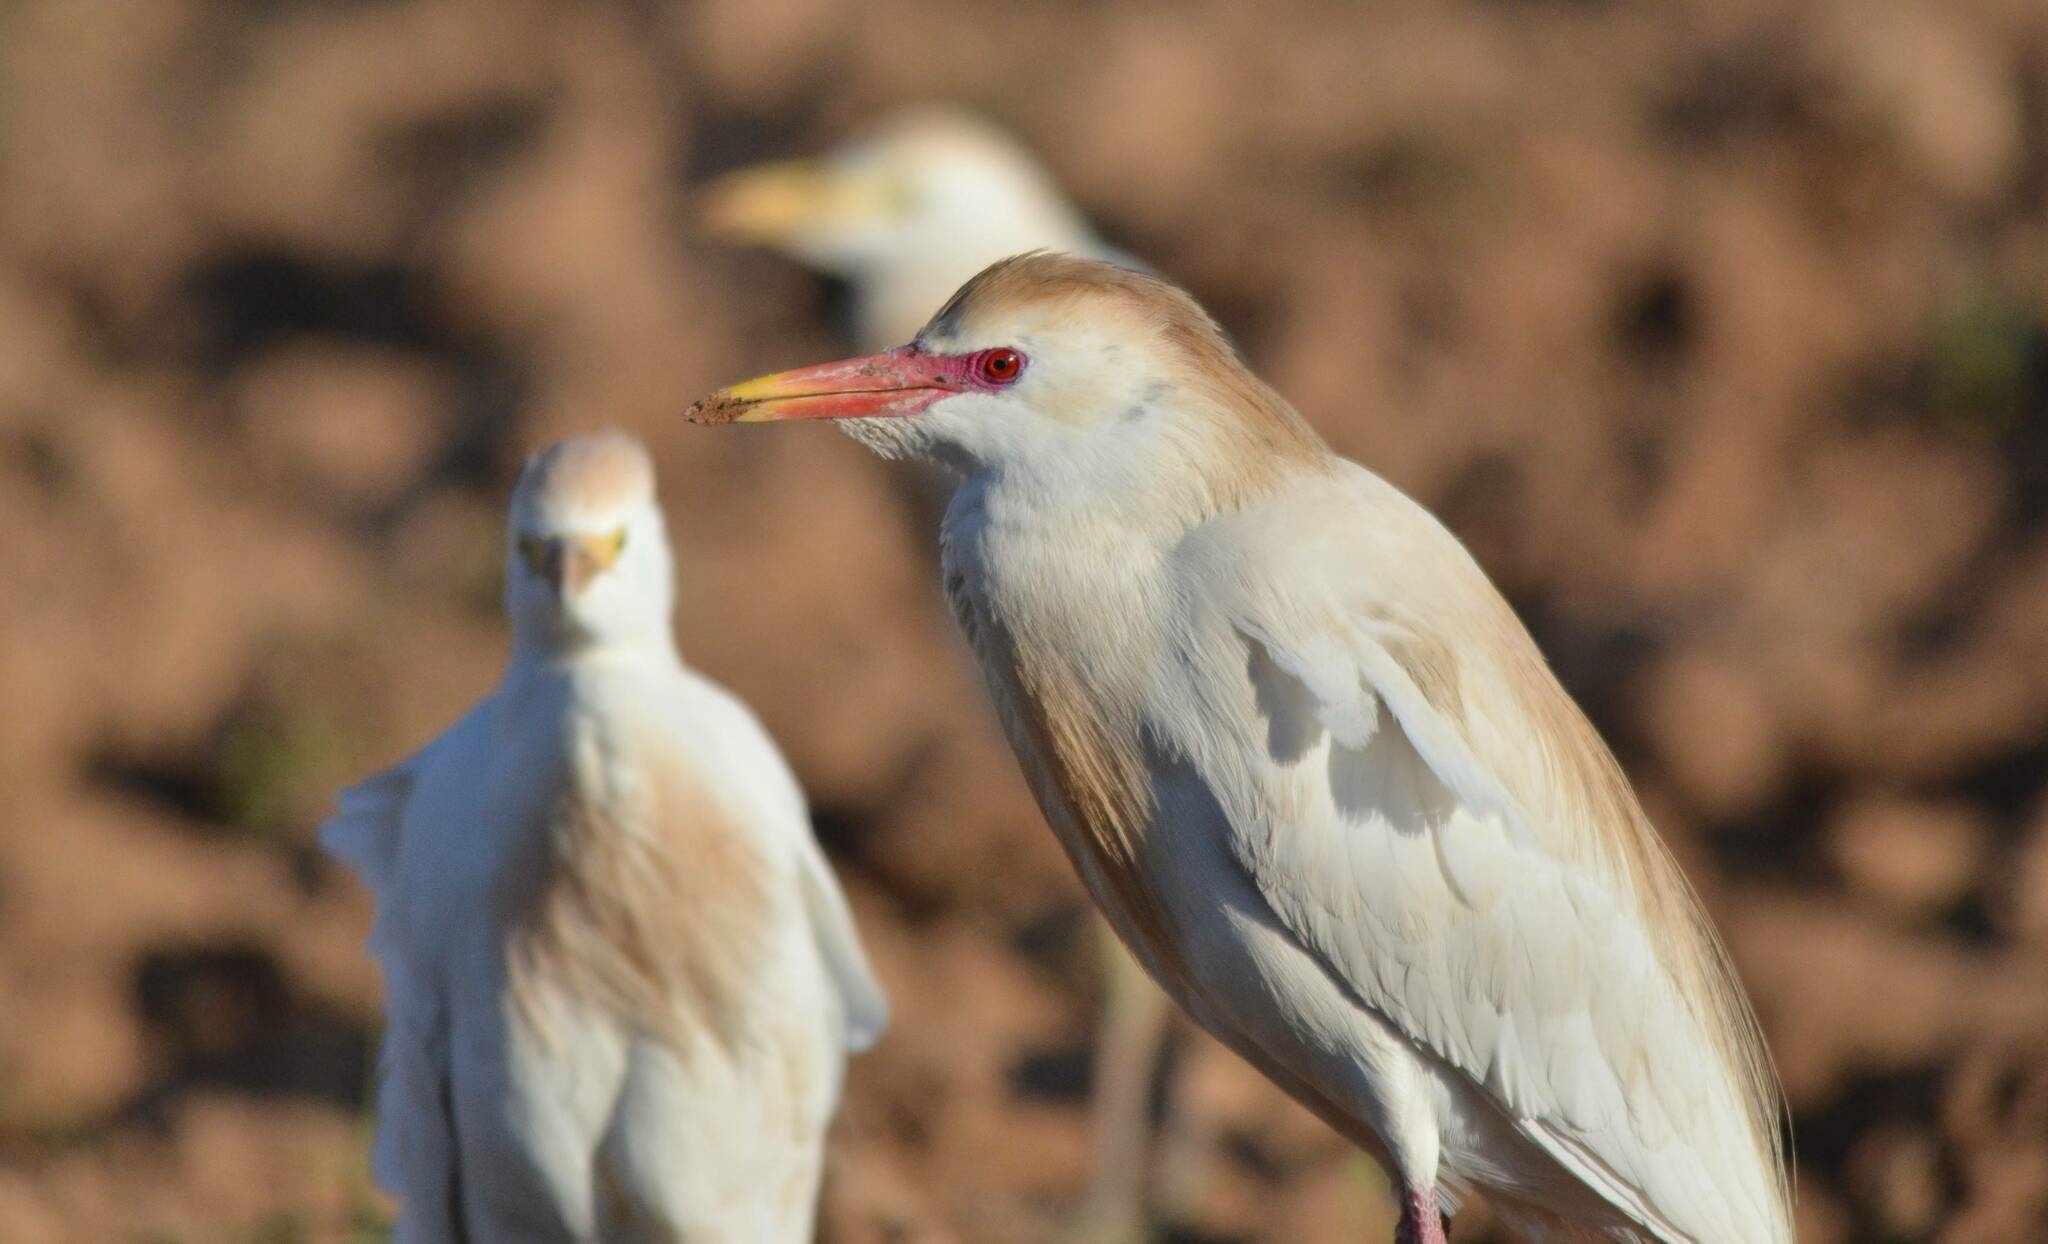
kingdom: Animalia
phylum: Chordata
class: Aves
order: Pelecaniformes
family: Ardeidae
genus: Bubulcus
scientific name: Bubulcus ibis
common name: Cattle egret
